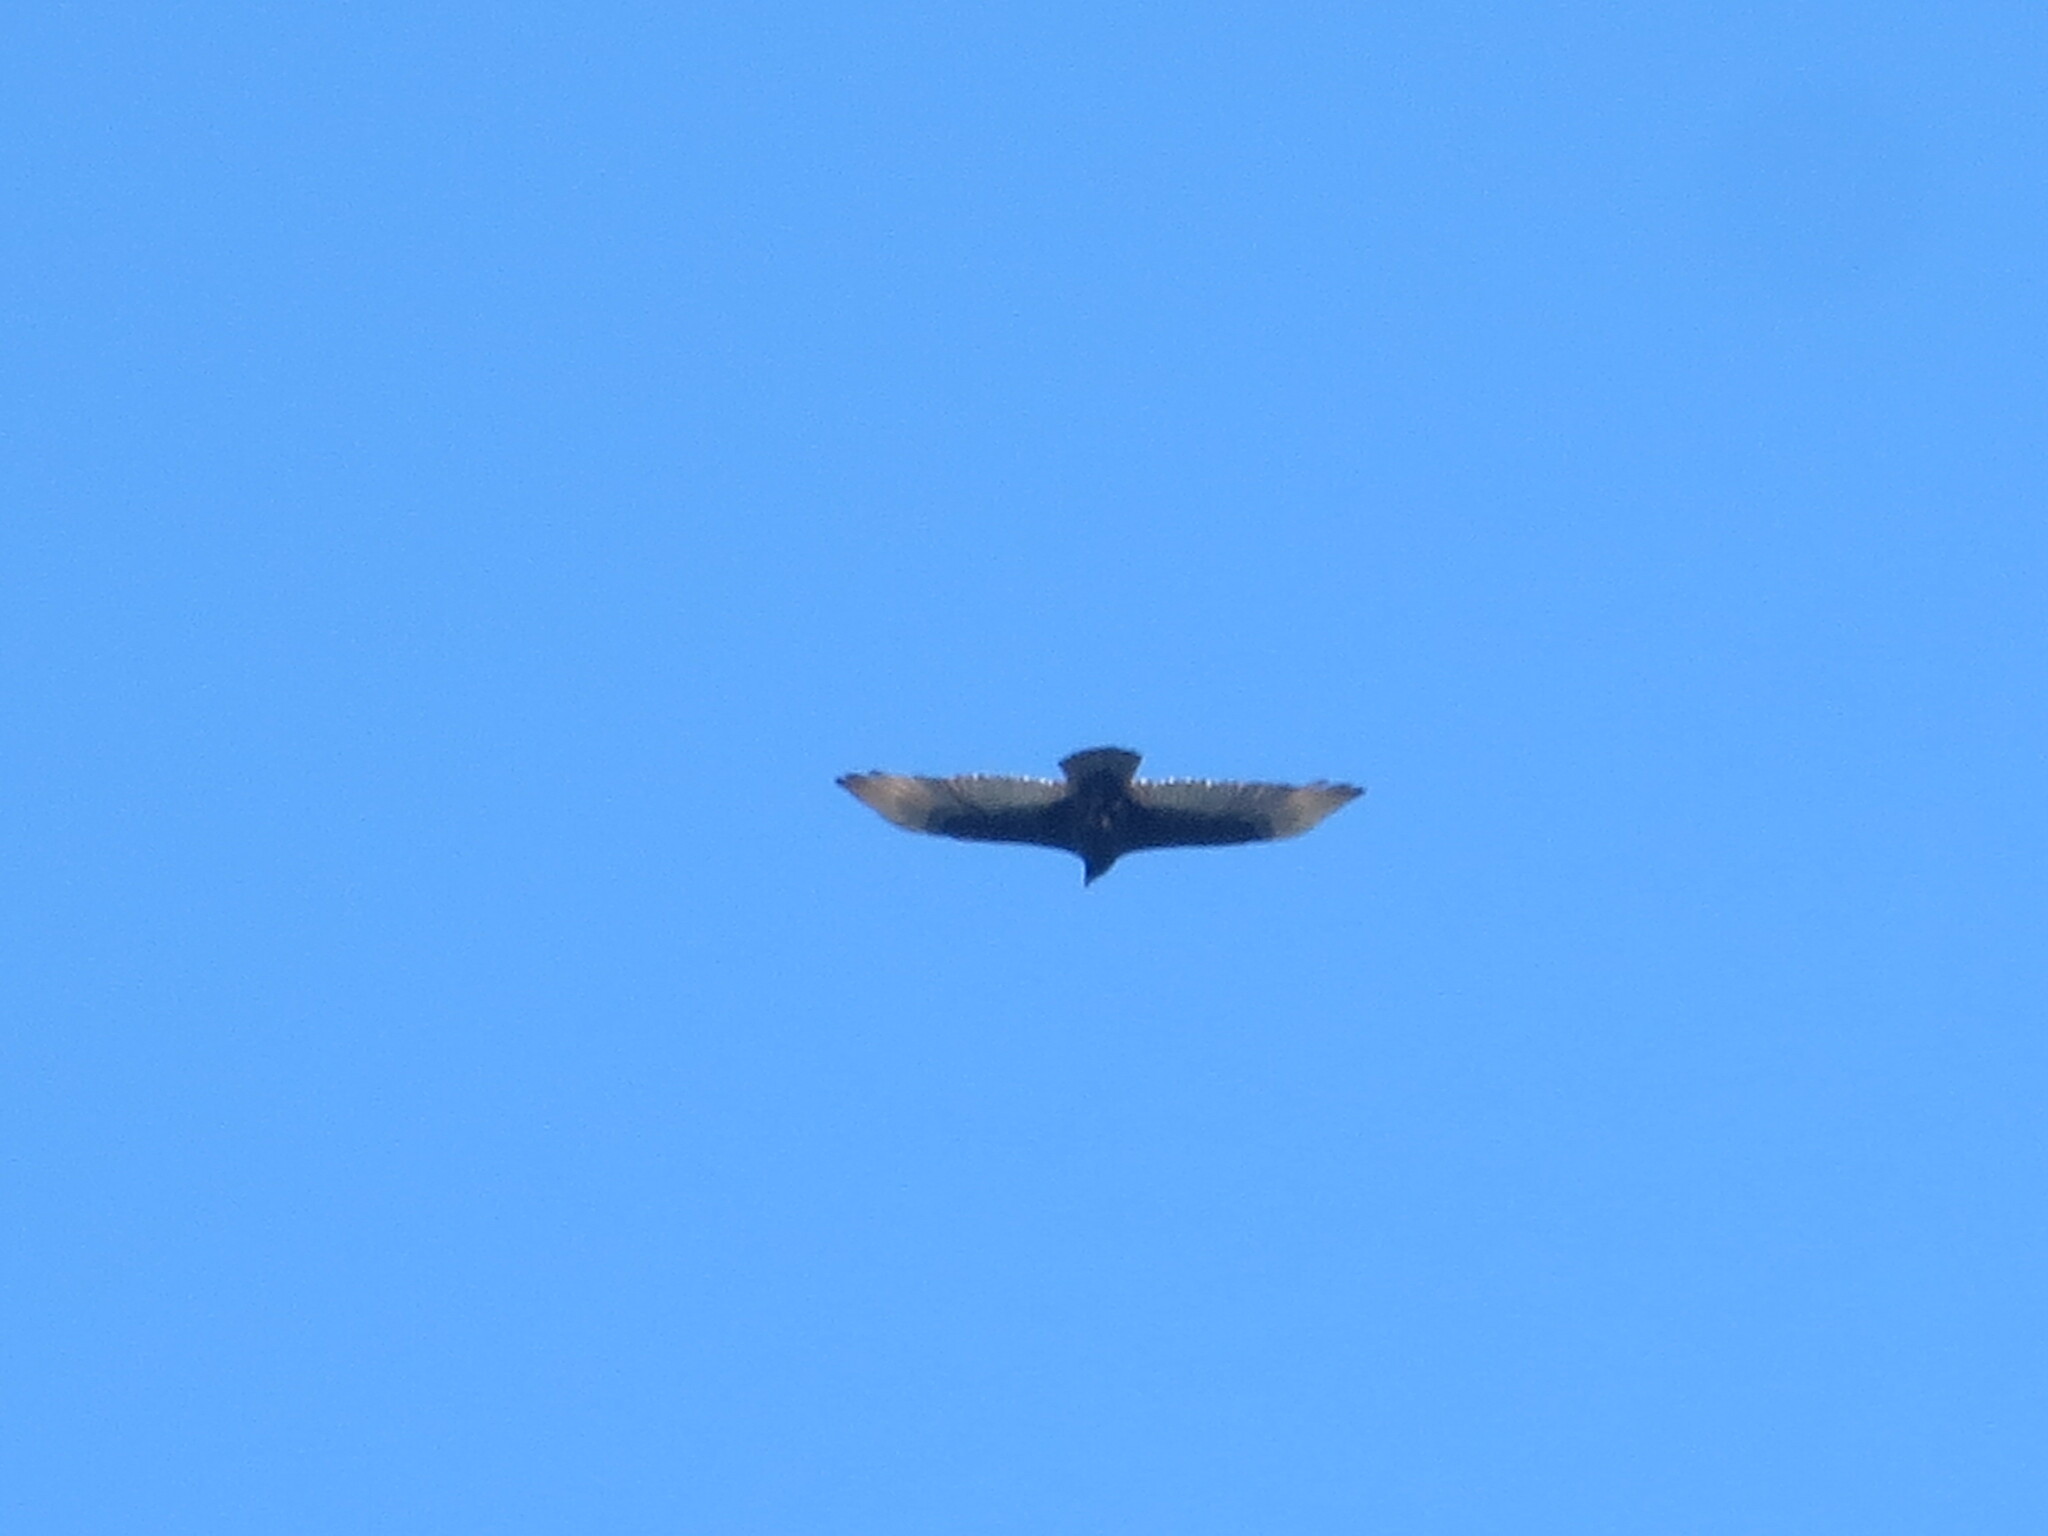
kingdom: Animalia
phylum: Chordata
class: Aves
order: Accipitriformes
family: Cathartidae
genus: Cathartes
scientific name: Cathartes aura
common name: Turkey vulture
